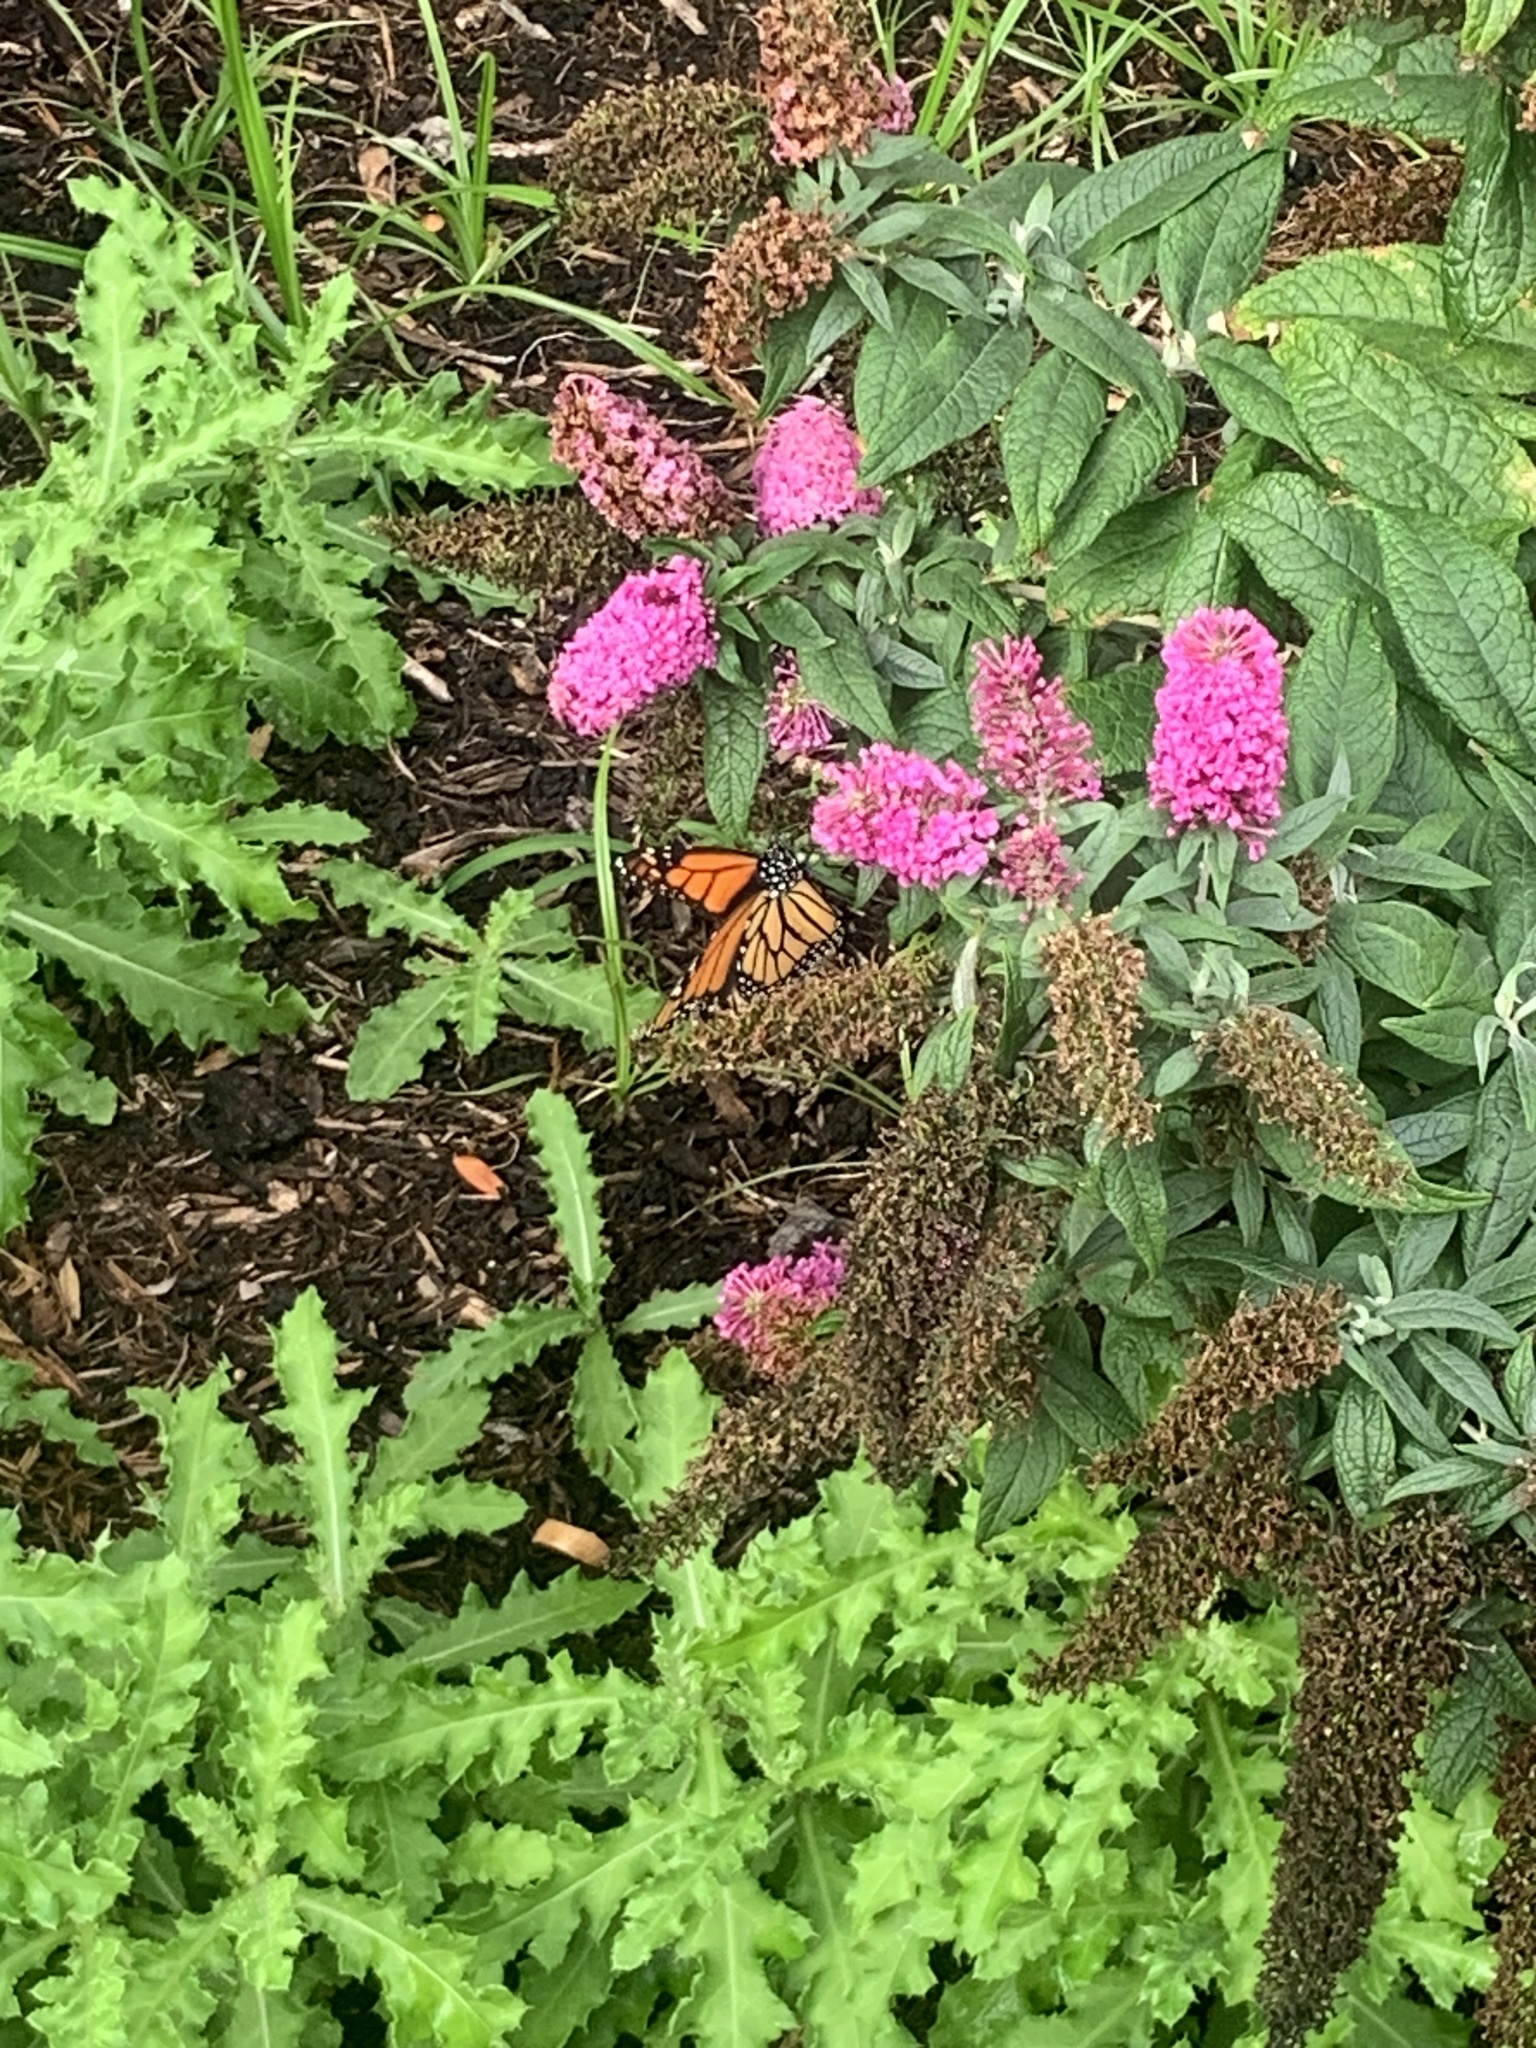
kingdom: Animalia
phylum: Arthropoda
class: Insecta
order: Lepidoptera
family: Nymphalidae
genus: Danaus
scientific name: Danaus plexippus
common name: Monarch
